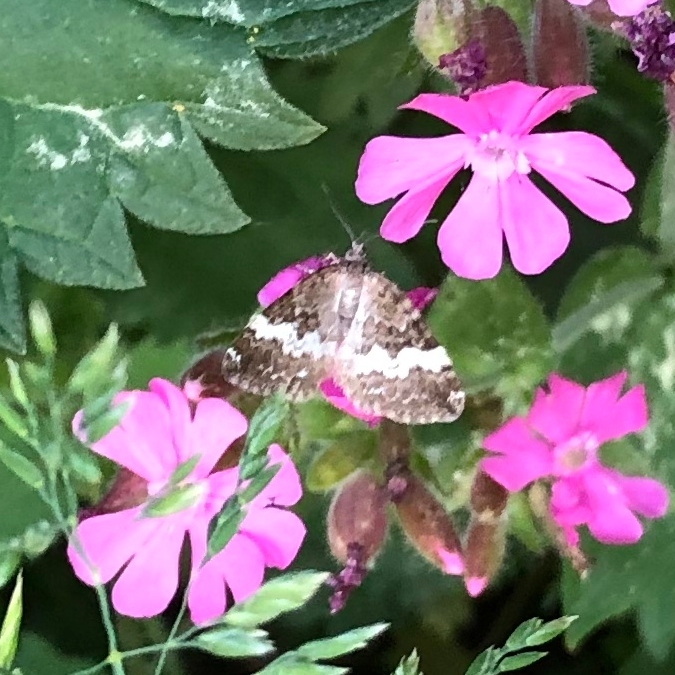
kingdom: Animalia
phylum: Arthropoda
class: Insecta
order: Lepidoptera
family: Geometridae
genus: Perizoma
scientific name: Perizoma affinitata
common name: Rivulet
